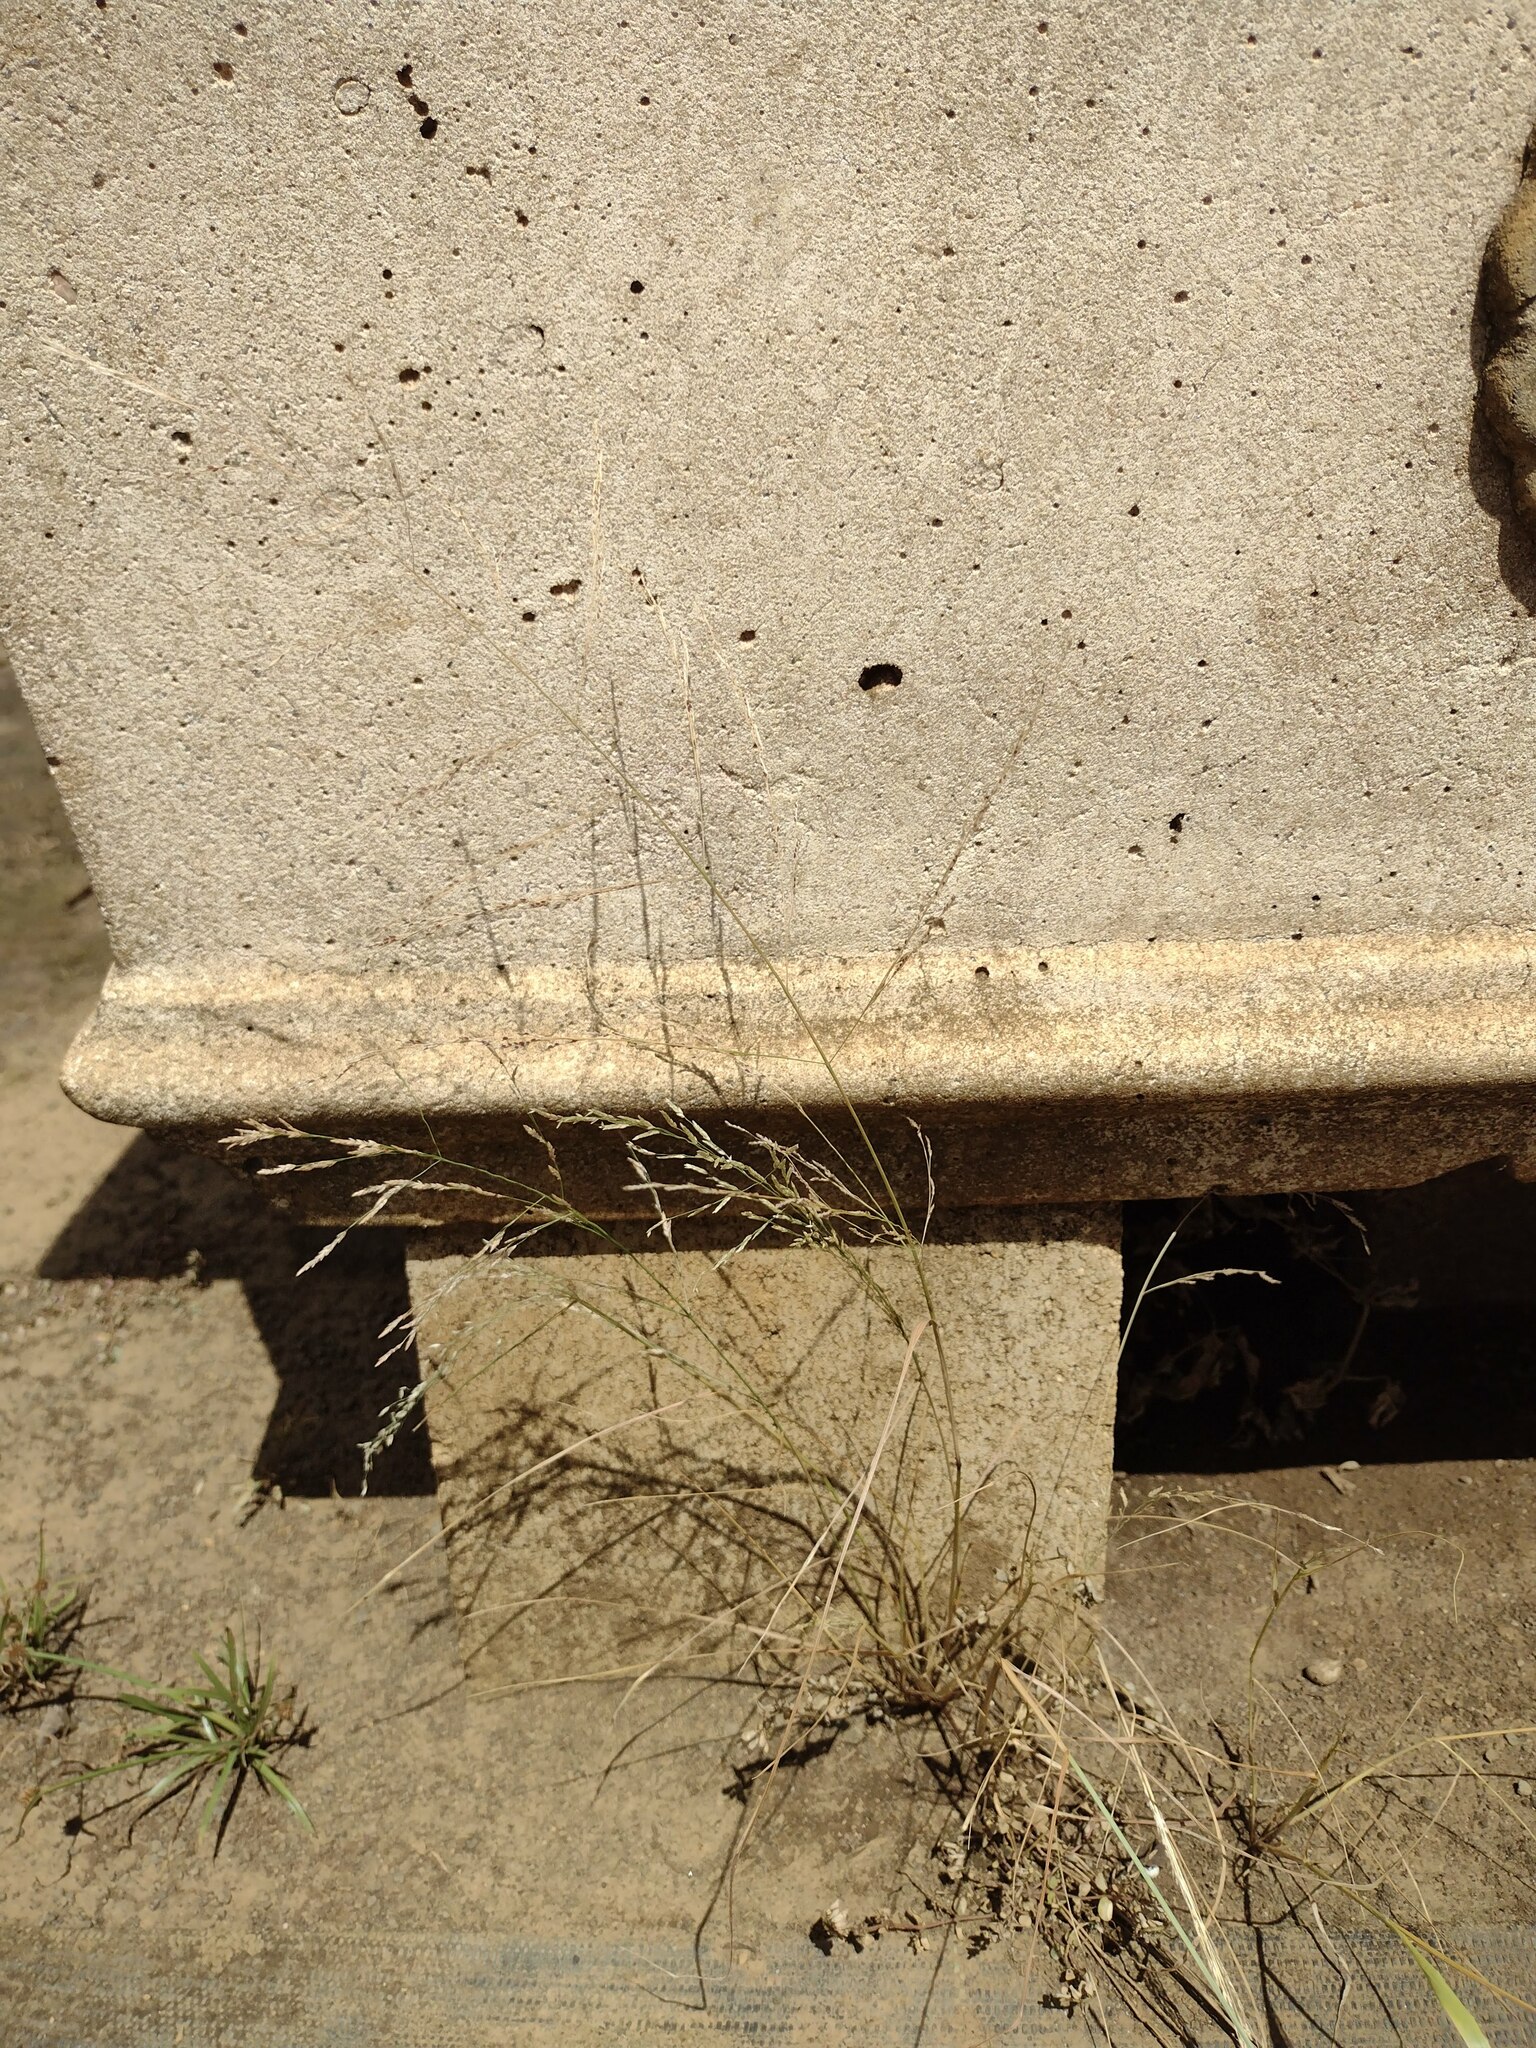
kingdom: Plantae
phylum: Tracheophyta
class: Liliopsida
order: Poales
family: Poaceae
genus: Eragrostis
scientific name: Eragrostis pectinacea
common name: Tufted lovegrass
